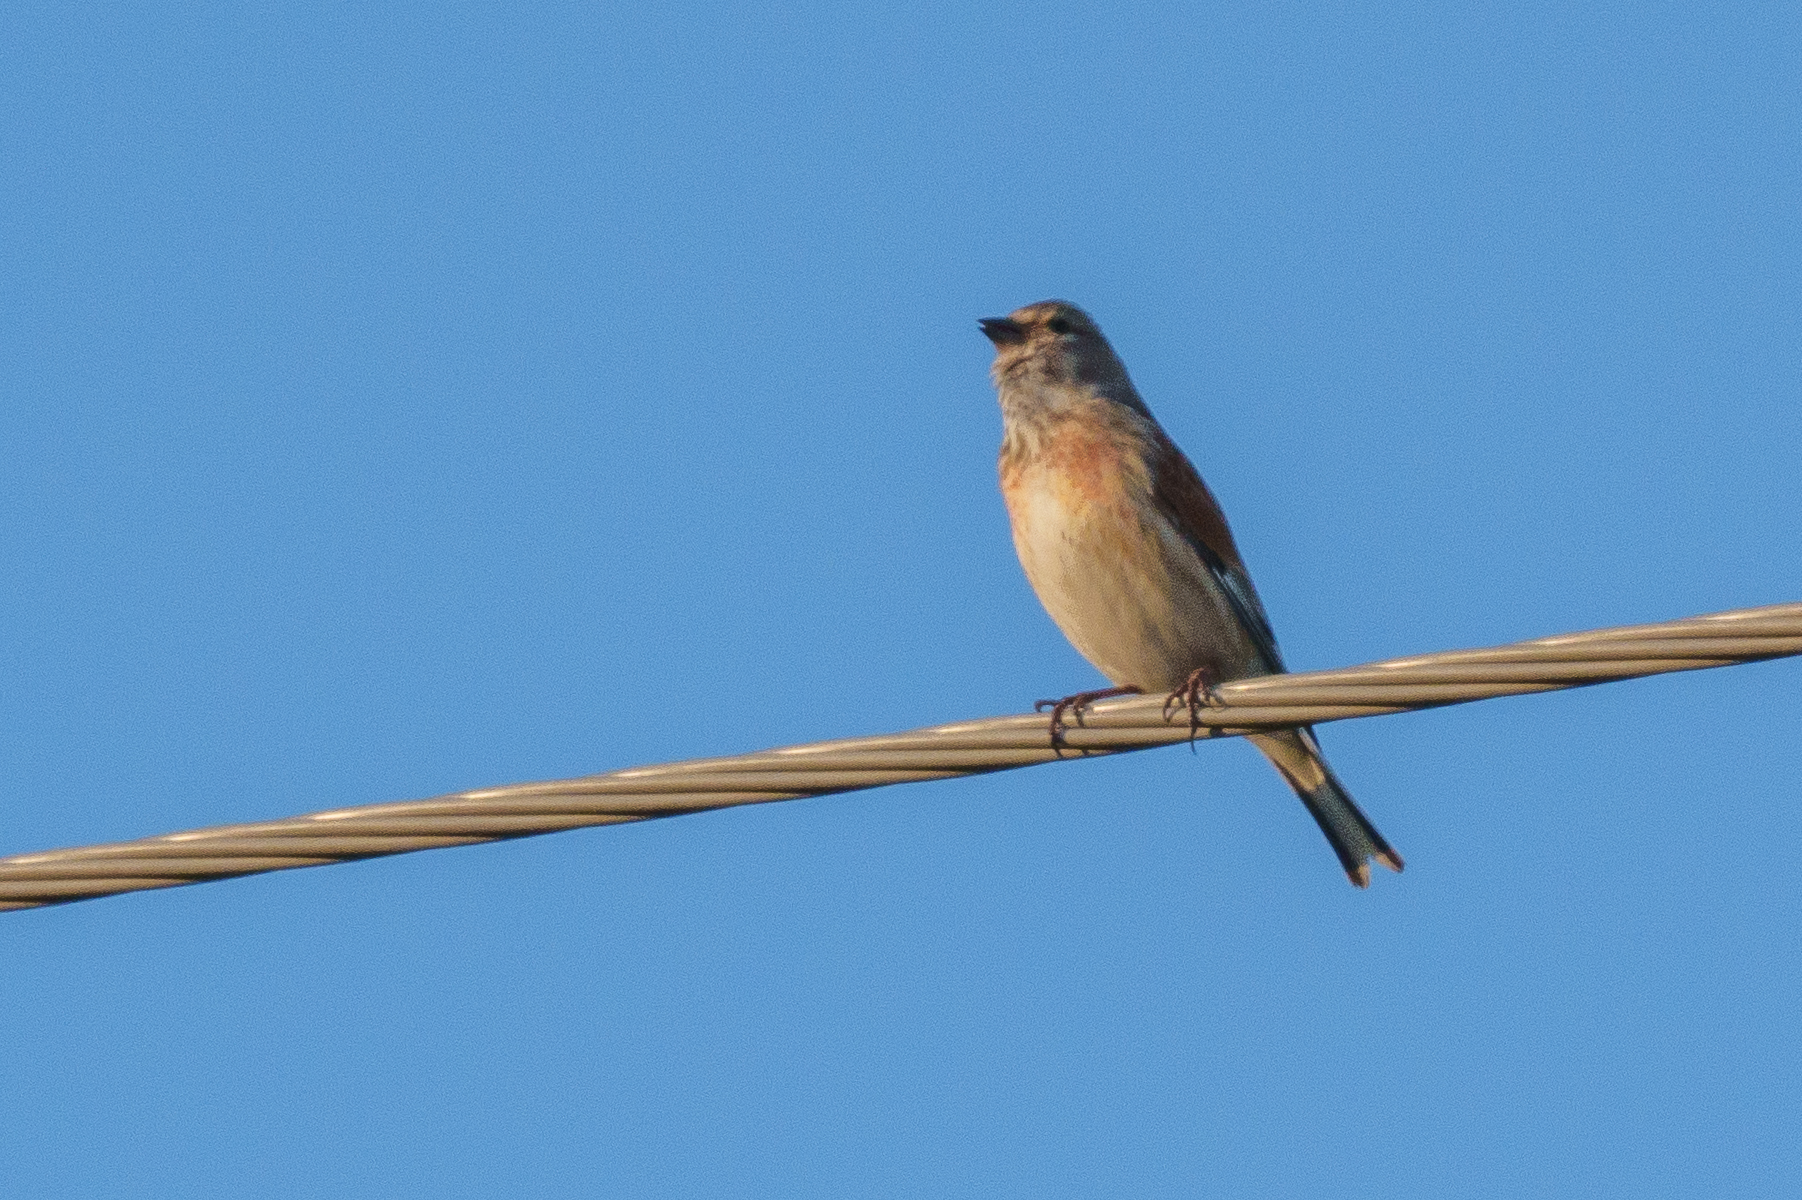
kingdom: Animalia
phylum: Chordata
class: Aves
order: Passeriformes
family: Fringillidae
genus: Linaria
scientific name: Linaria cannabina
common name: Common linnet
